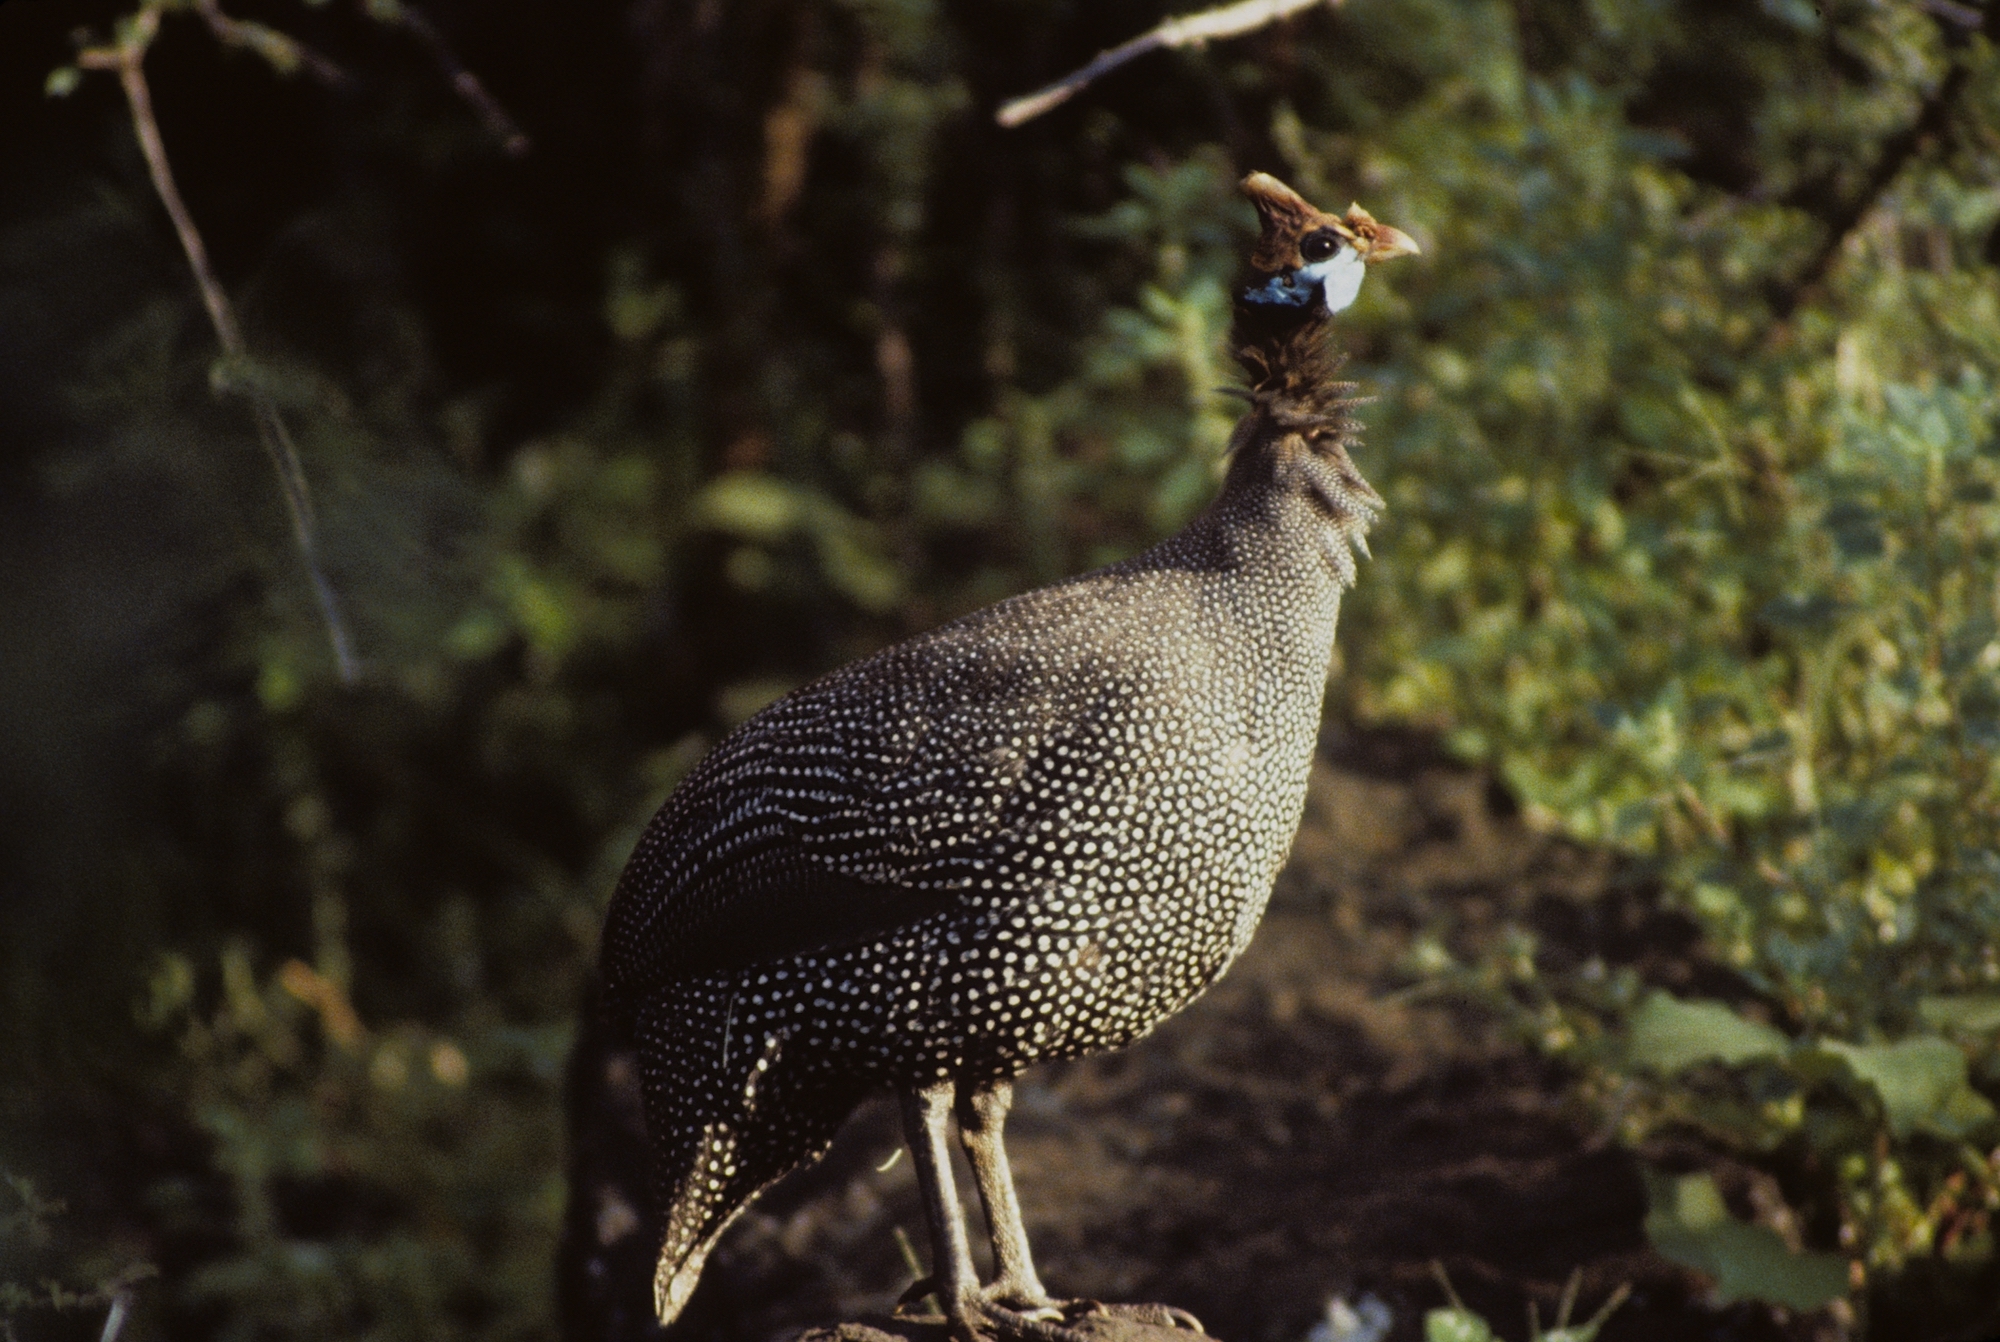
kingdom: Animalia
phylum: Chordata
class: Aves
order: Galliformes
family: Numididae
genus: Numida
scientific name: Numida meleagris
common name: Helmeted guineafowl
